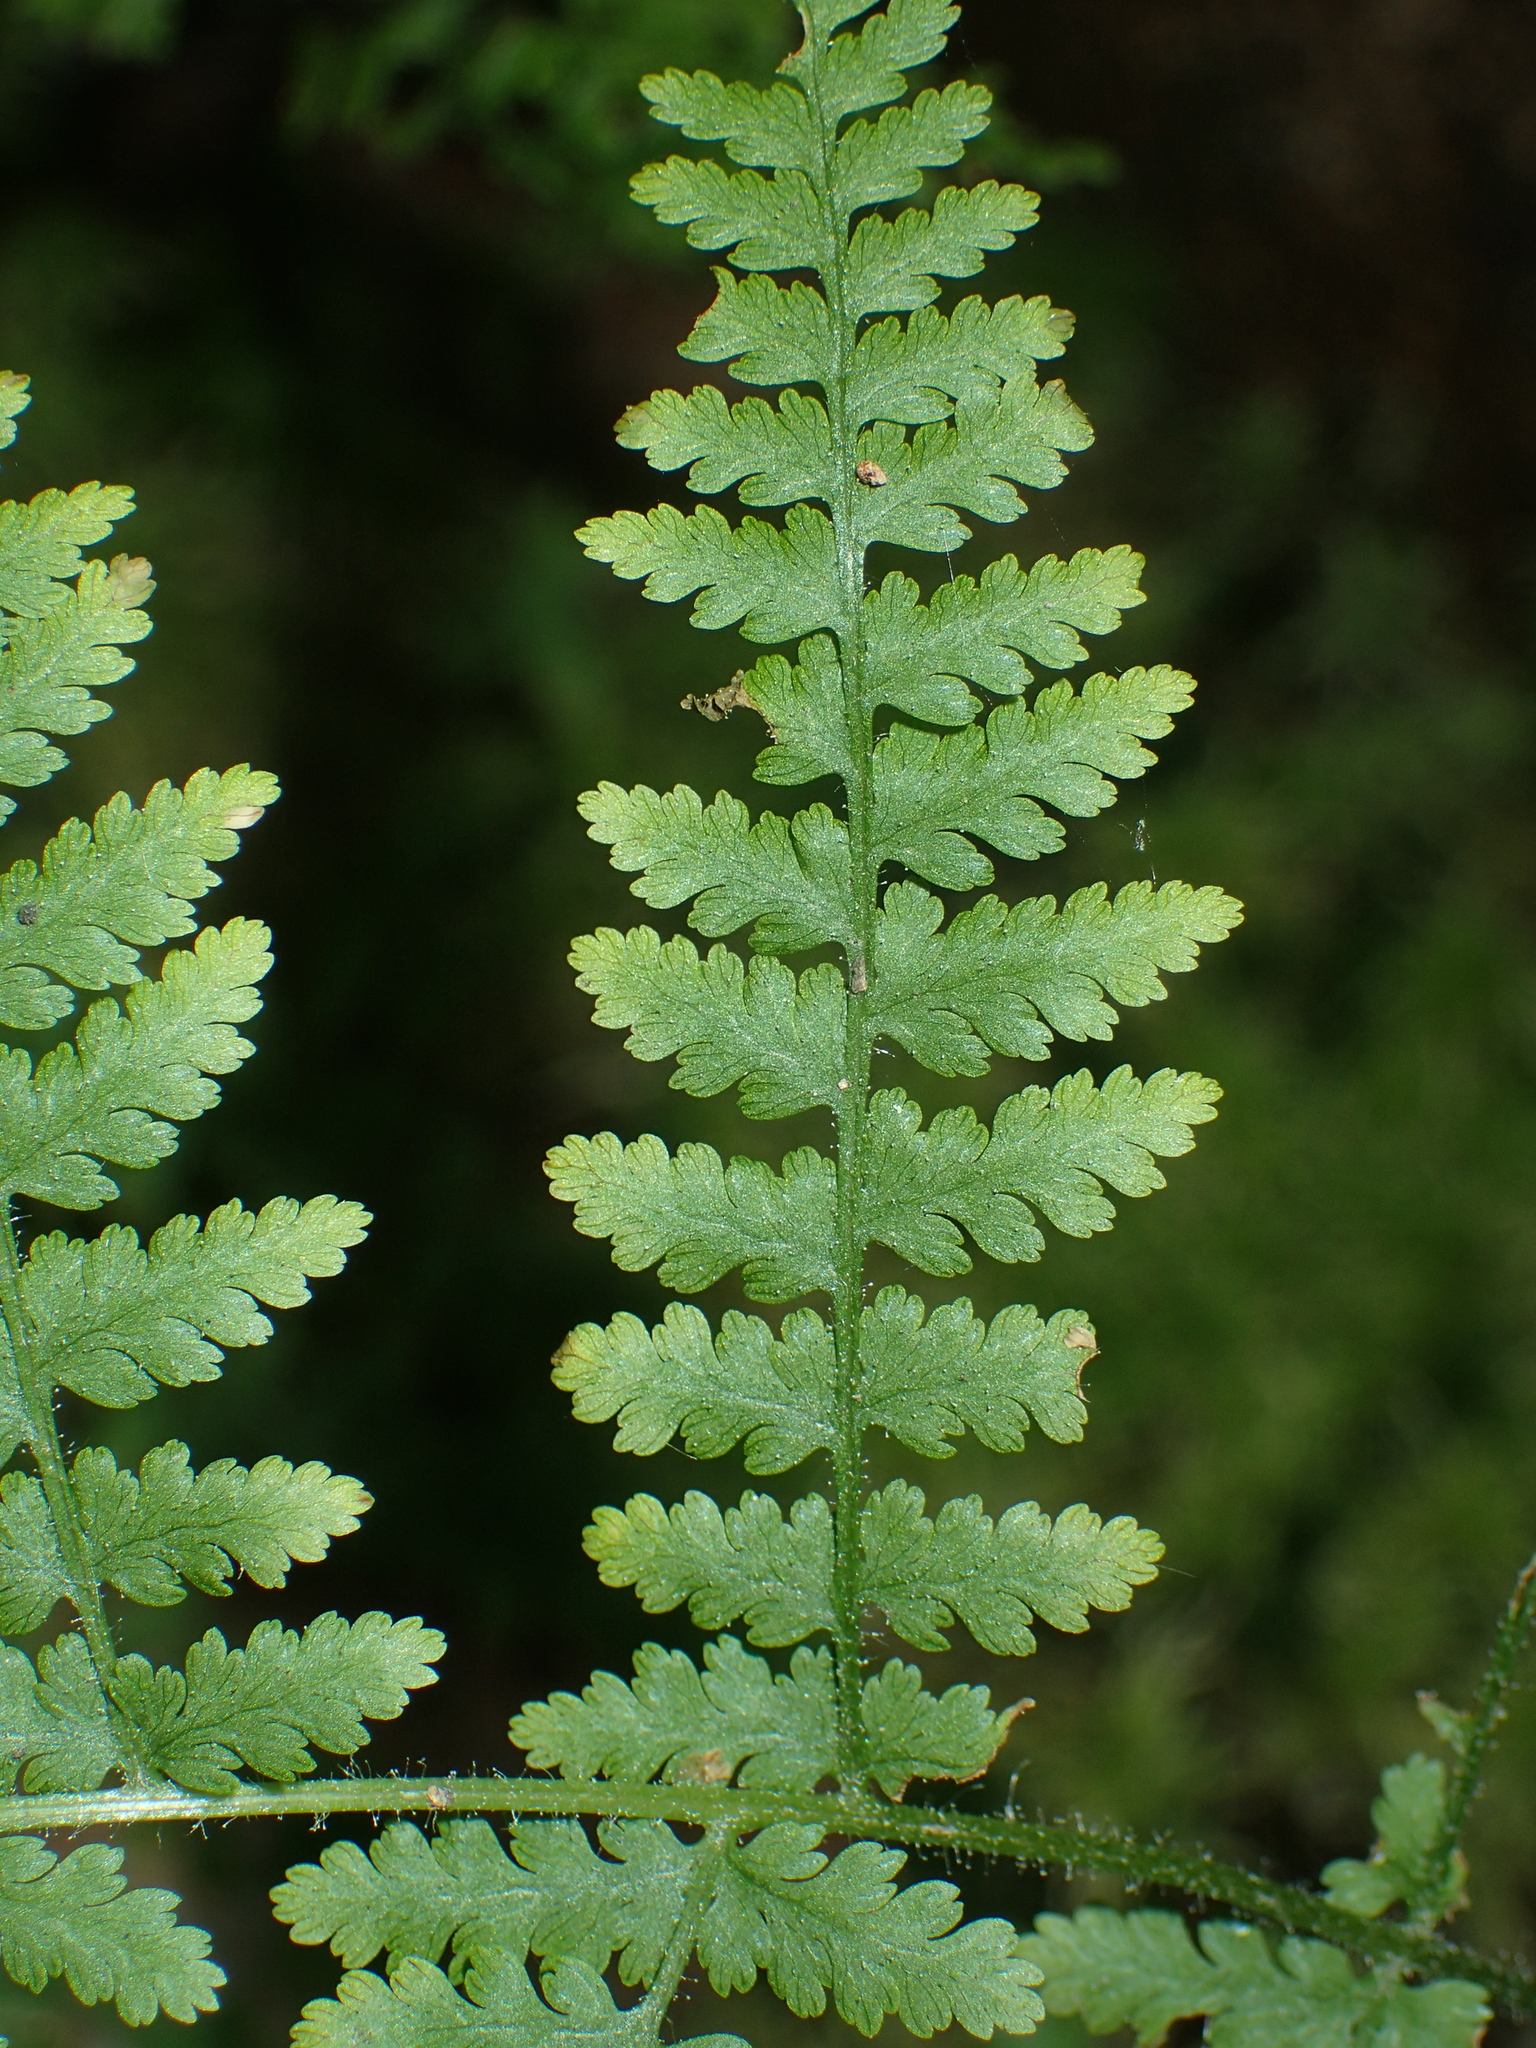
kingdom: Plantae
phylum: Tracheophyta
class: Polypodiopsida
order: Polypodiales
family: Dennstaedtiaceae
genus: Sitobolium
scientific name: Sitobolium punctilobum
